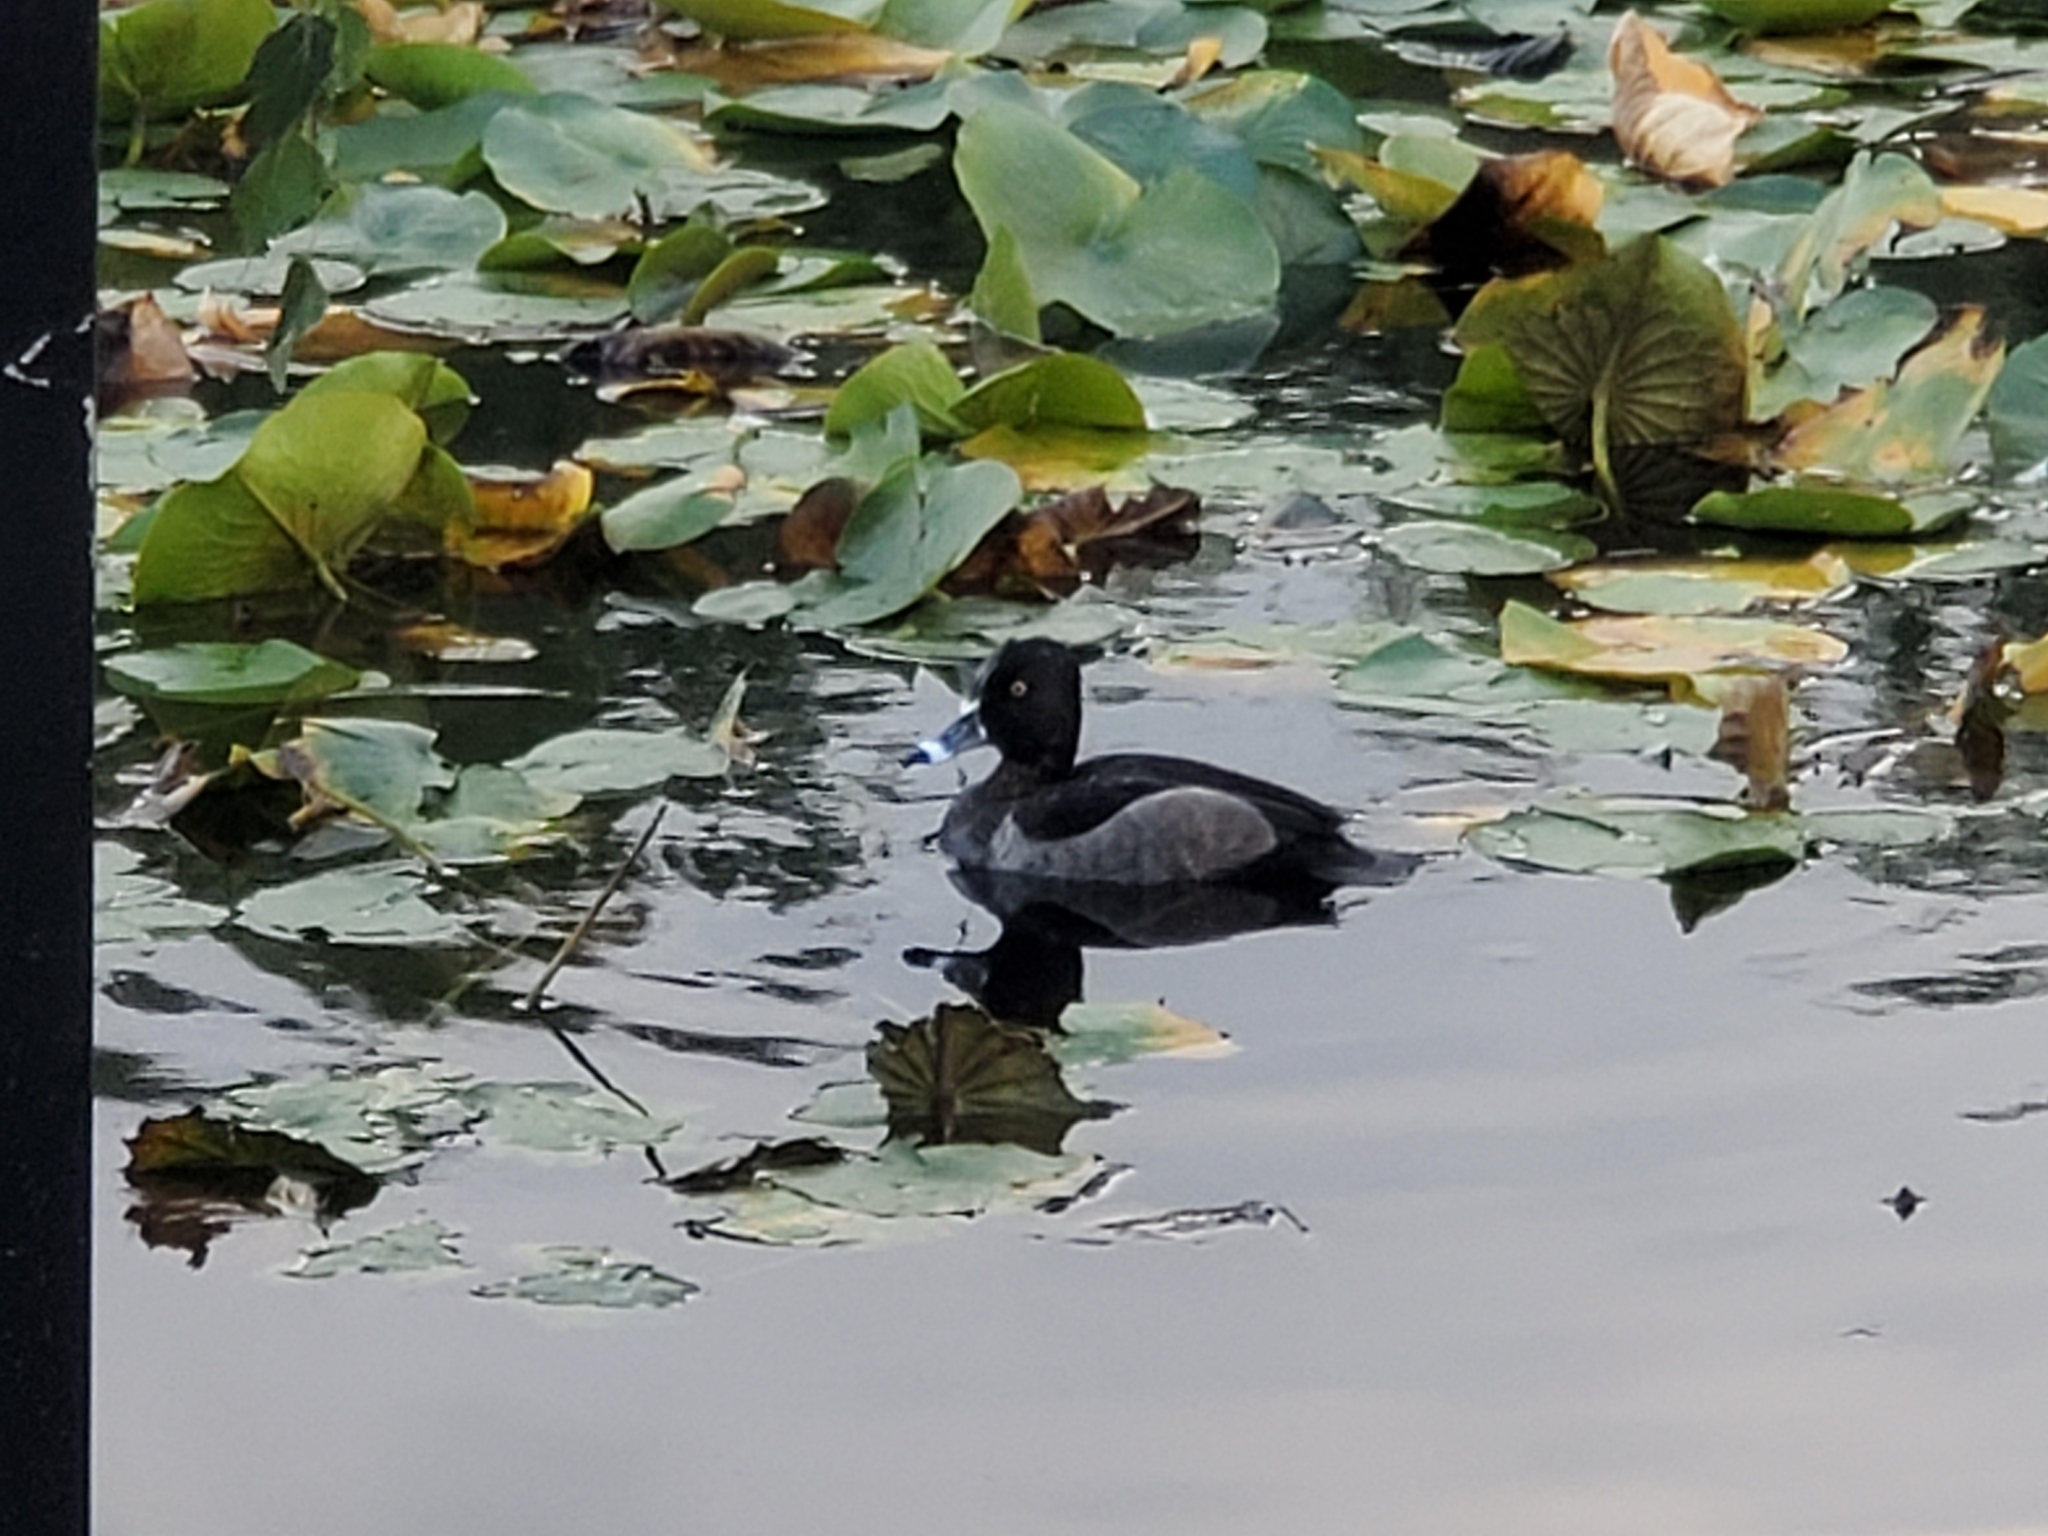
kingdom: Animalia
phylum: Chordata
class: Aves
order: Anseriformes
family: Anatidae
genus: Aythya
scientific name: Aythya collaris
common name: Ring-necked duck
